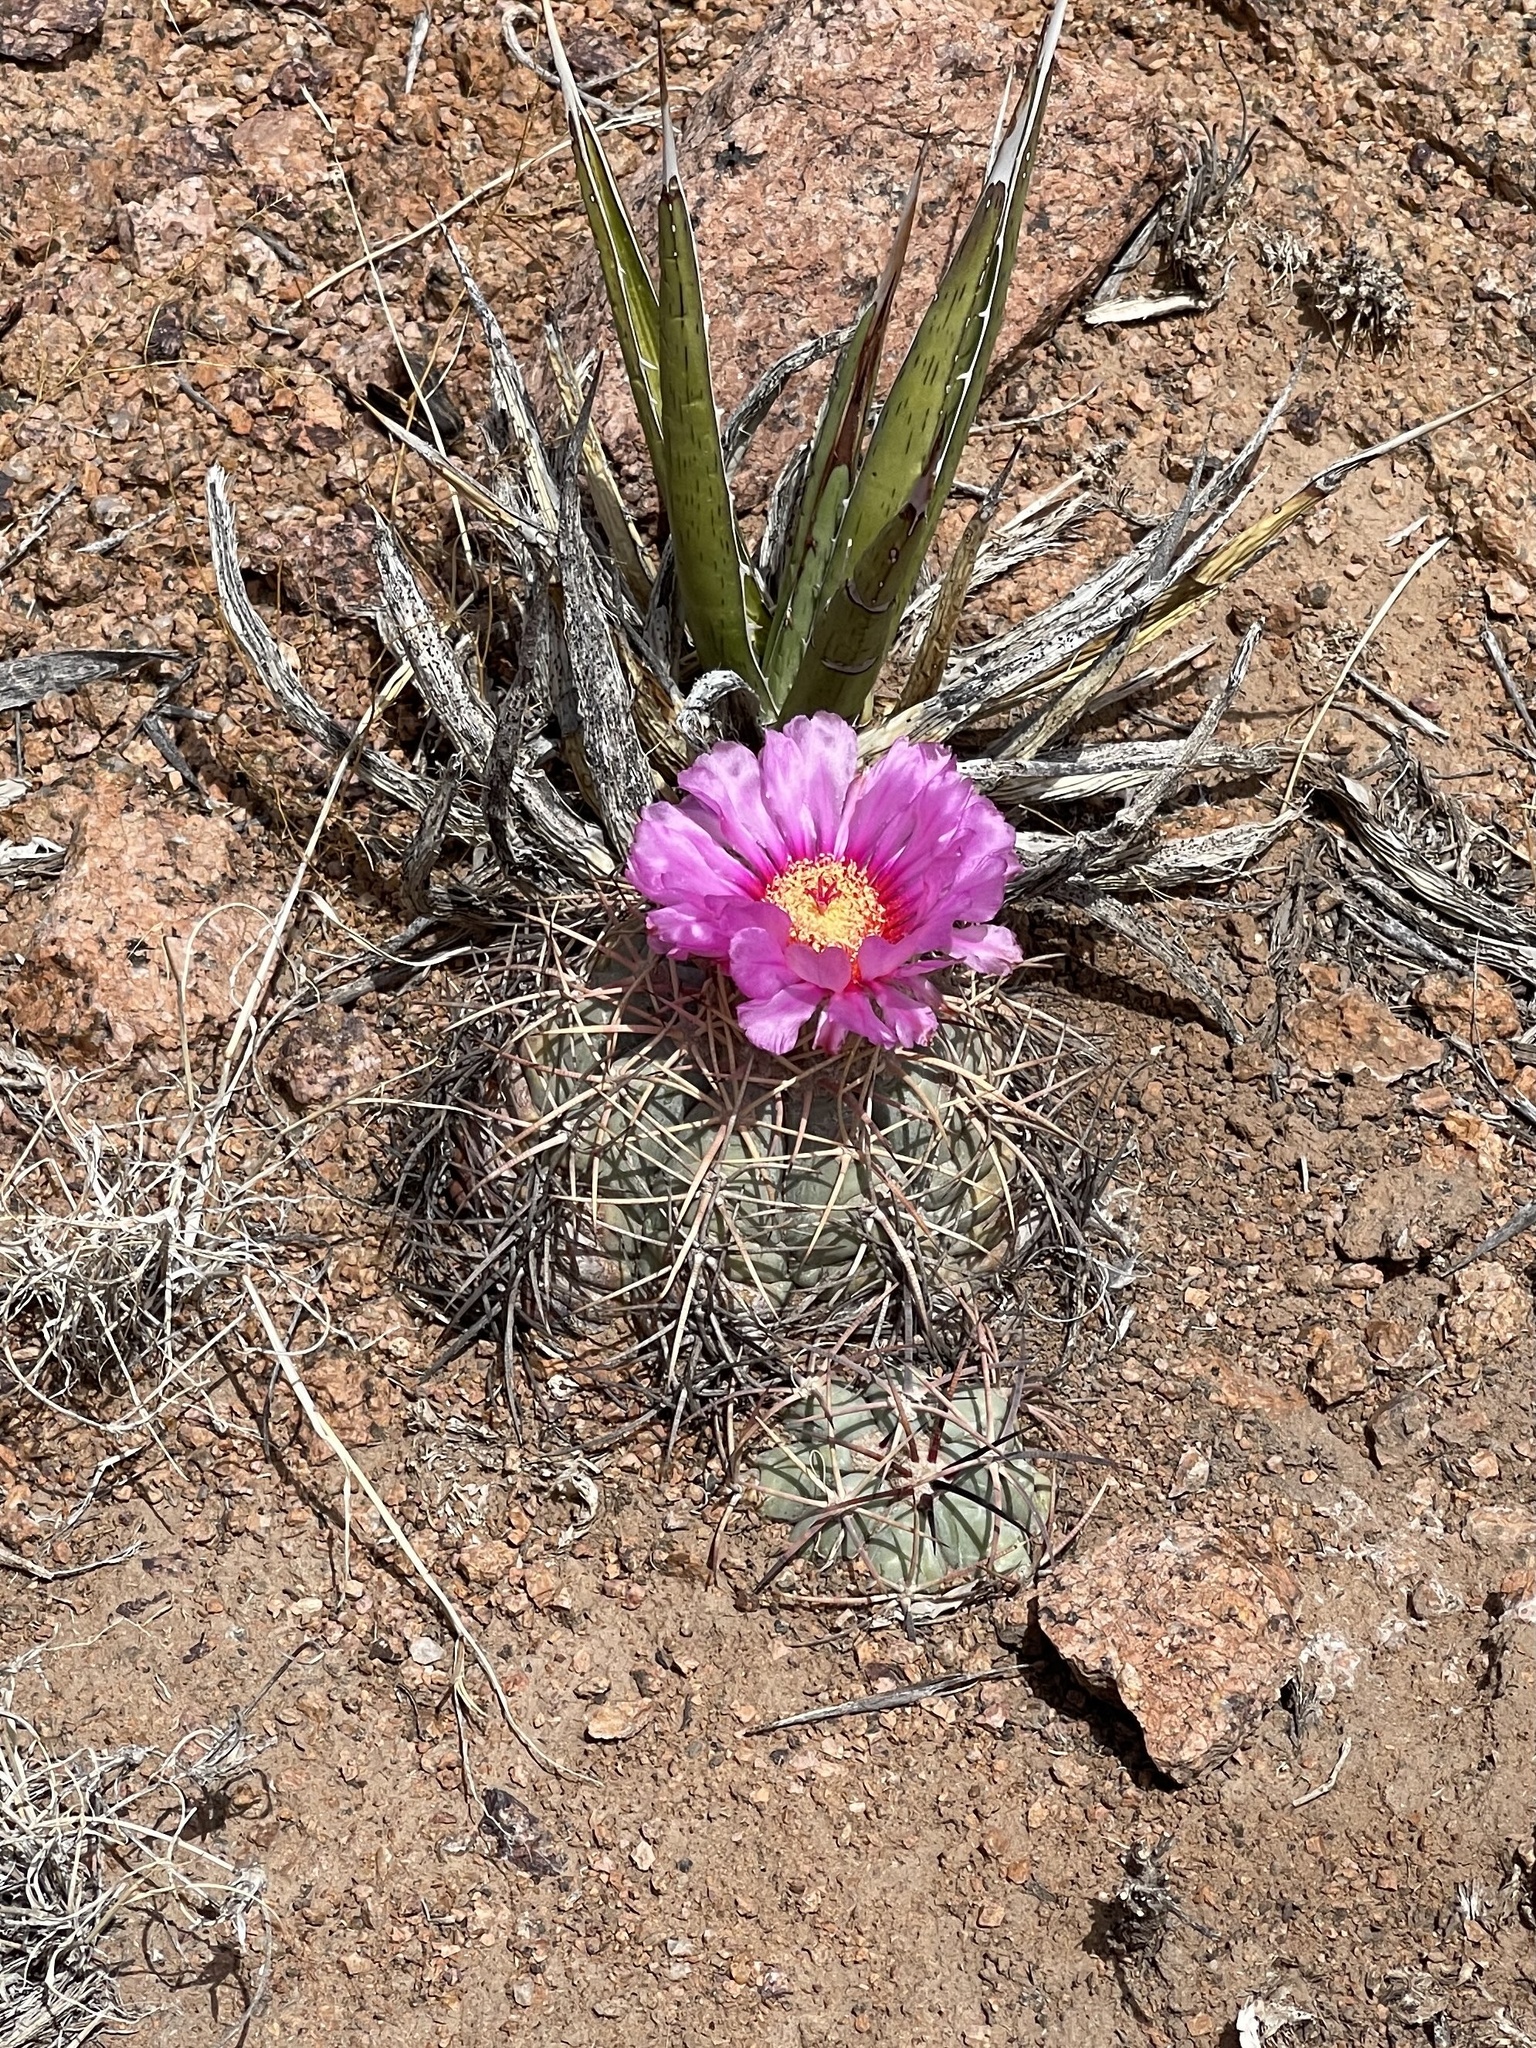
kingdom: Plantae
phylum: Tracheophyta
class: Magnoliopsida
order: Caryophyllales
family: Cactaceae
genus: Echinocactus
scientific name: Echinocactus horizonthalonius
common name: Devilshead
